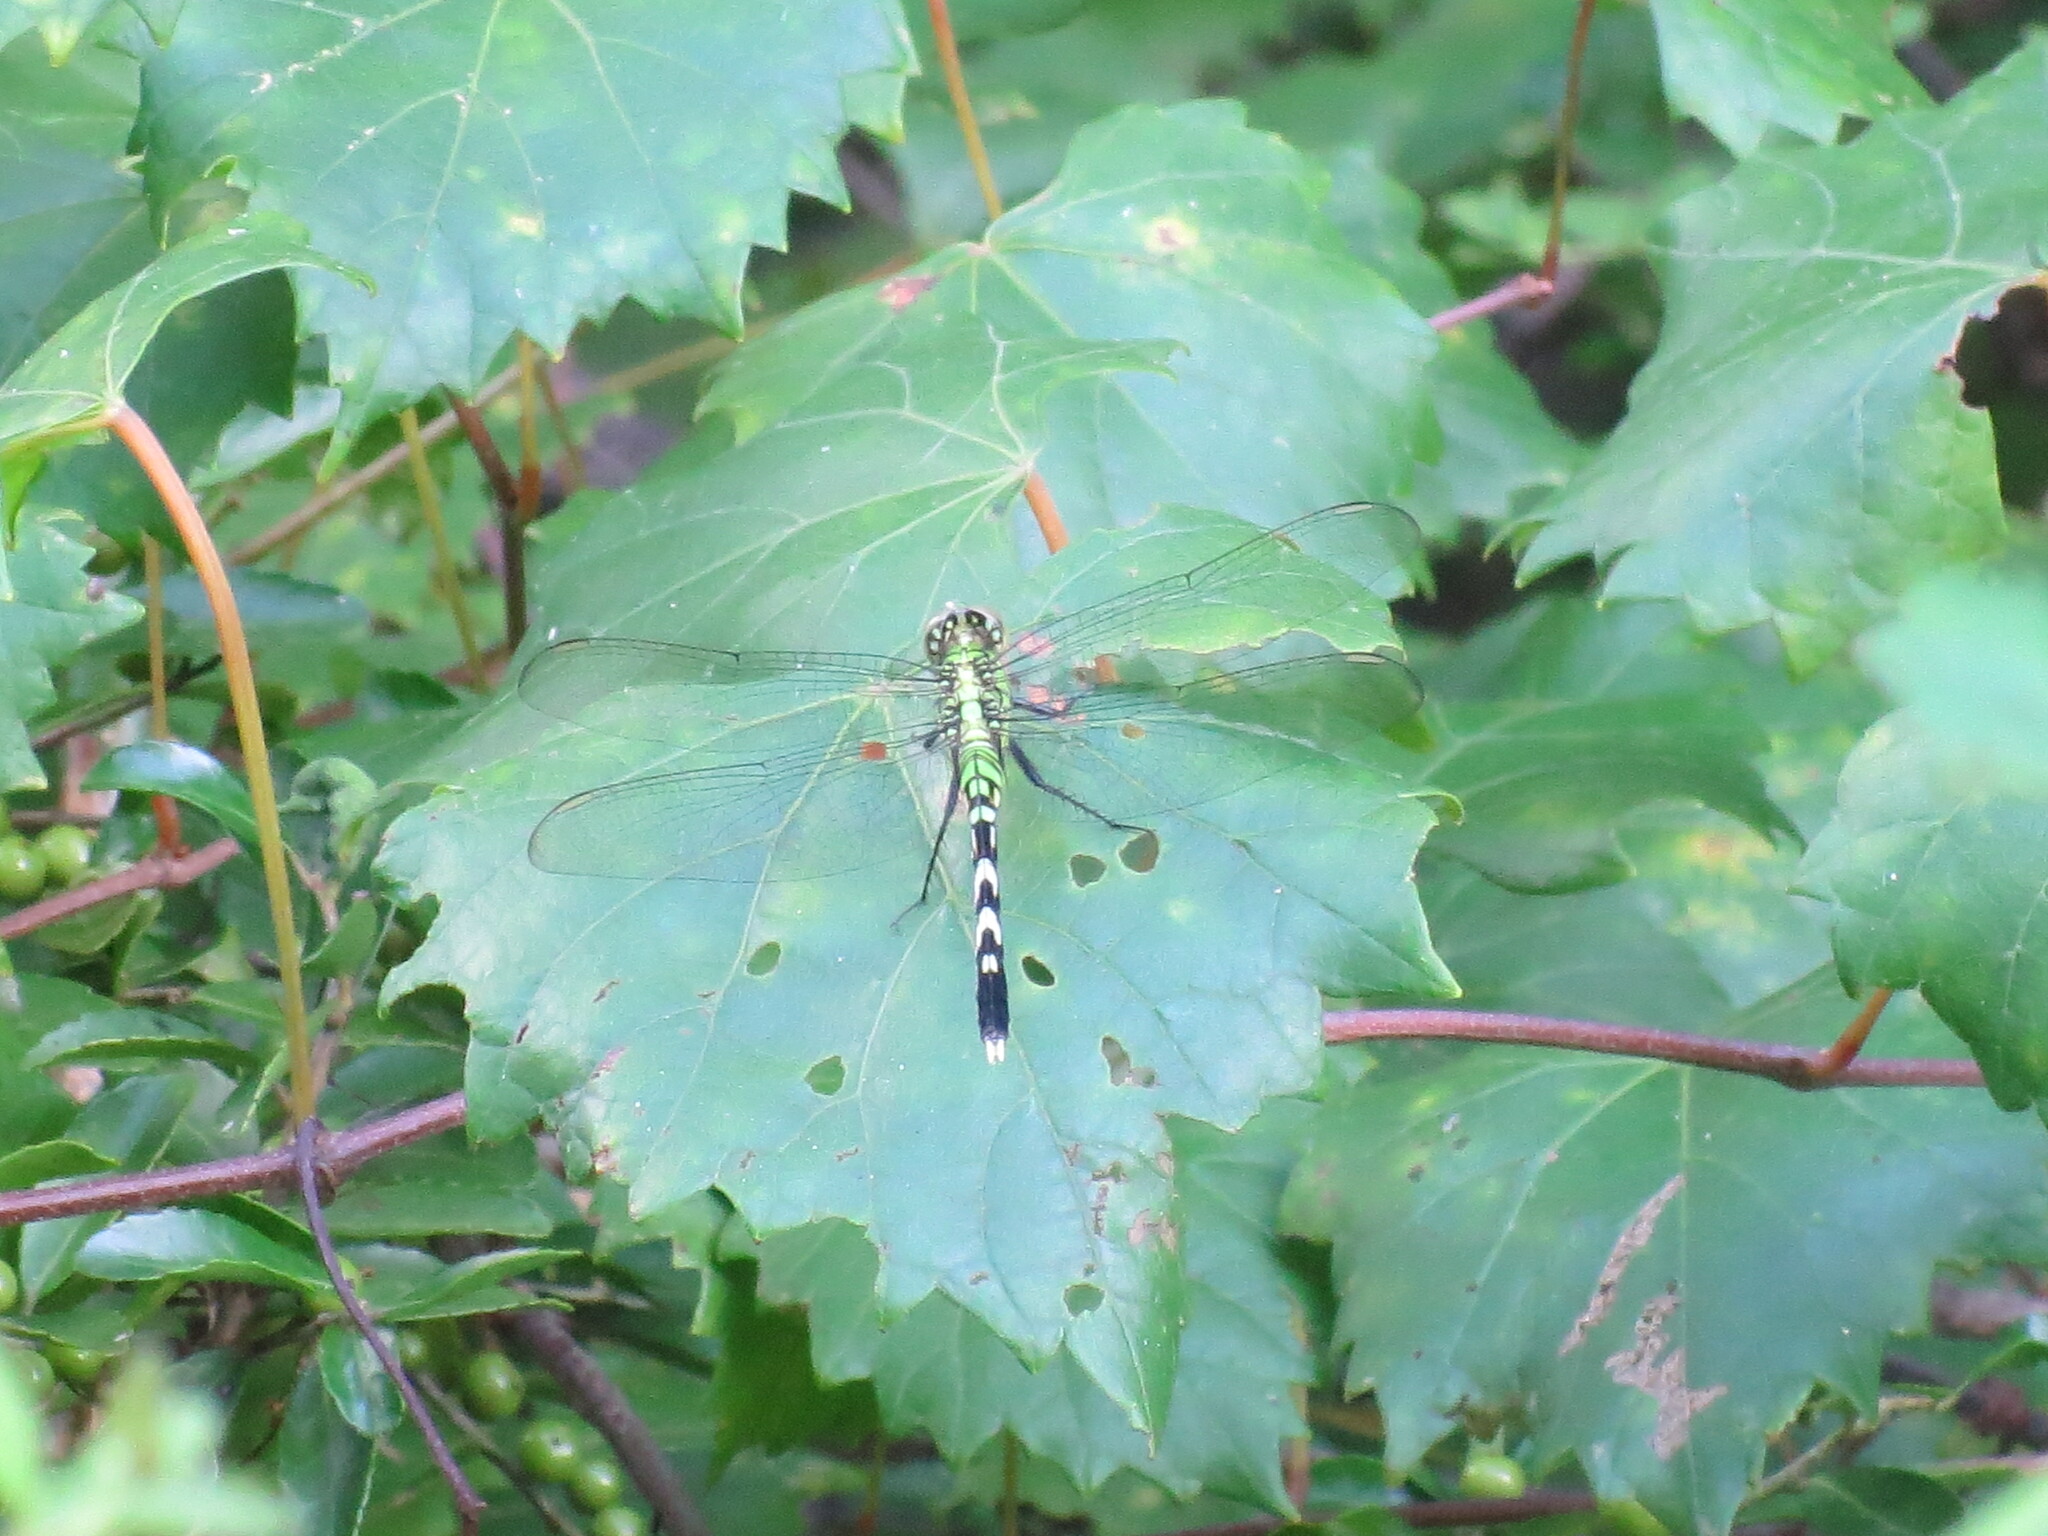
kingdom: Animalia
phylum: Arthropoda
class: Insecta
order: Odonata
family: Libellulidae
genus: Erythemis
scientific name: Erythemis simplicicollis
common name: Eastern pondhawk
